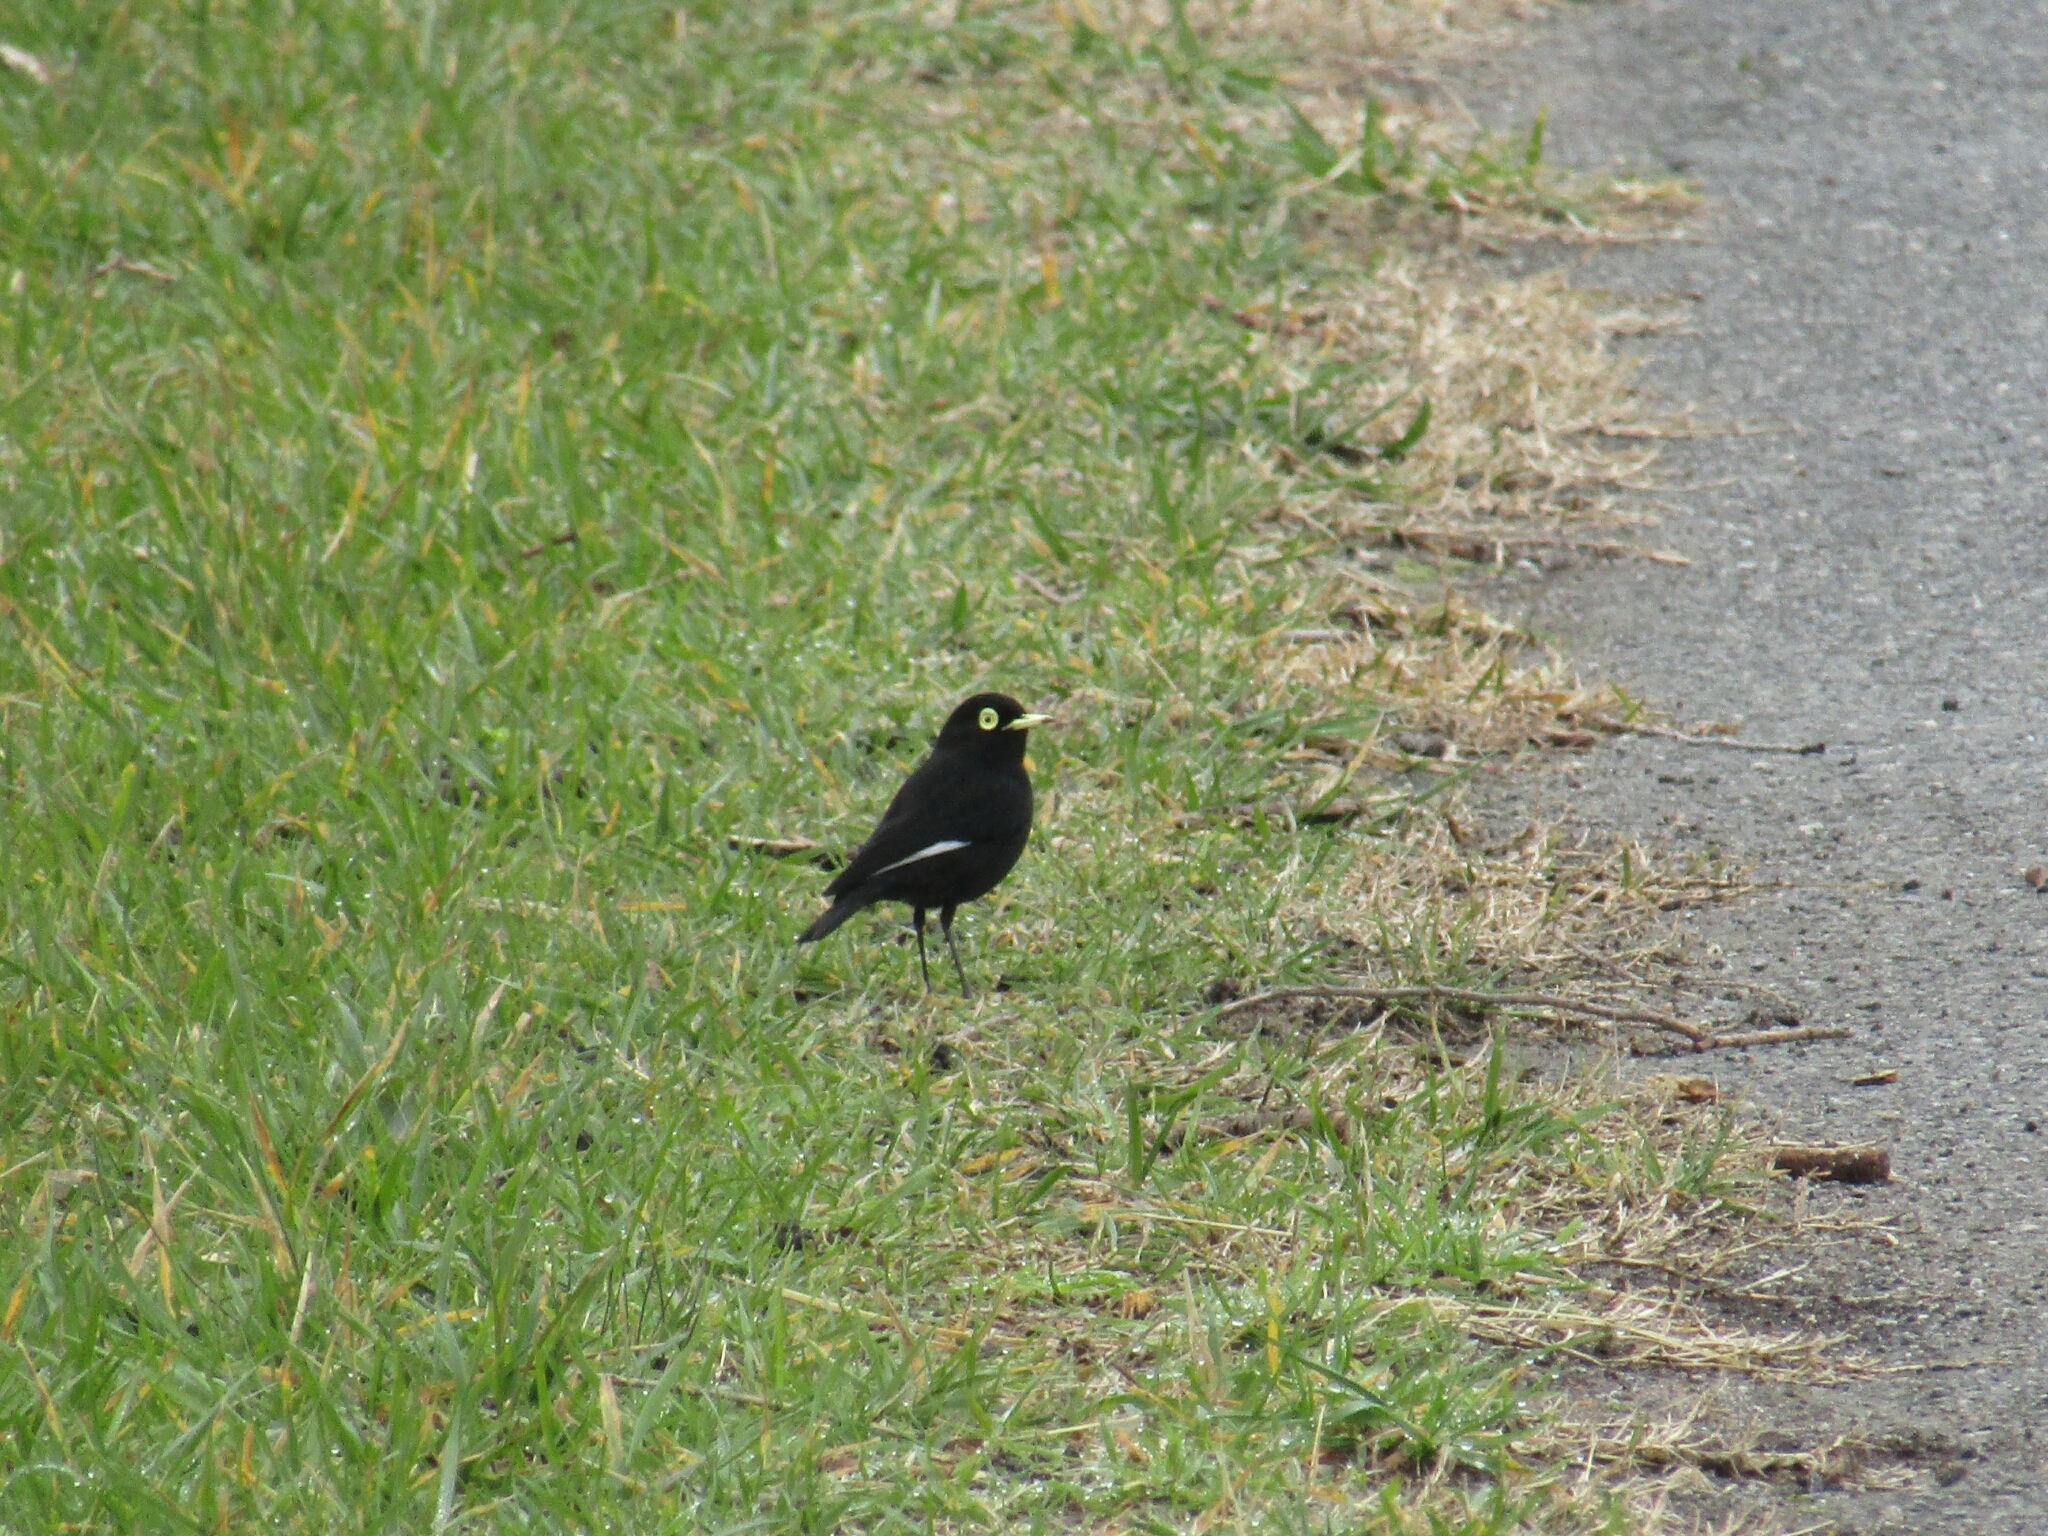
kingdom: Animalia
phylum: Chordata
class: Aves
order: Passeriformes
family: Tyrannidae
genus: Hymenops
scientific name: Hymenops perspicillatus
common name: Spectacled tyrant
